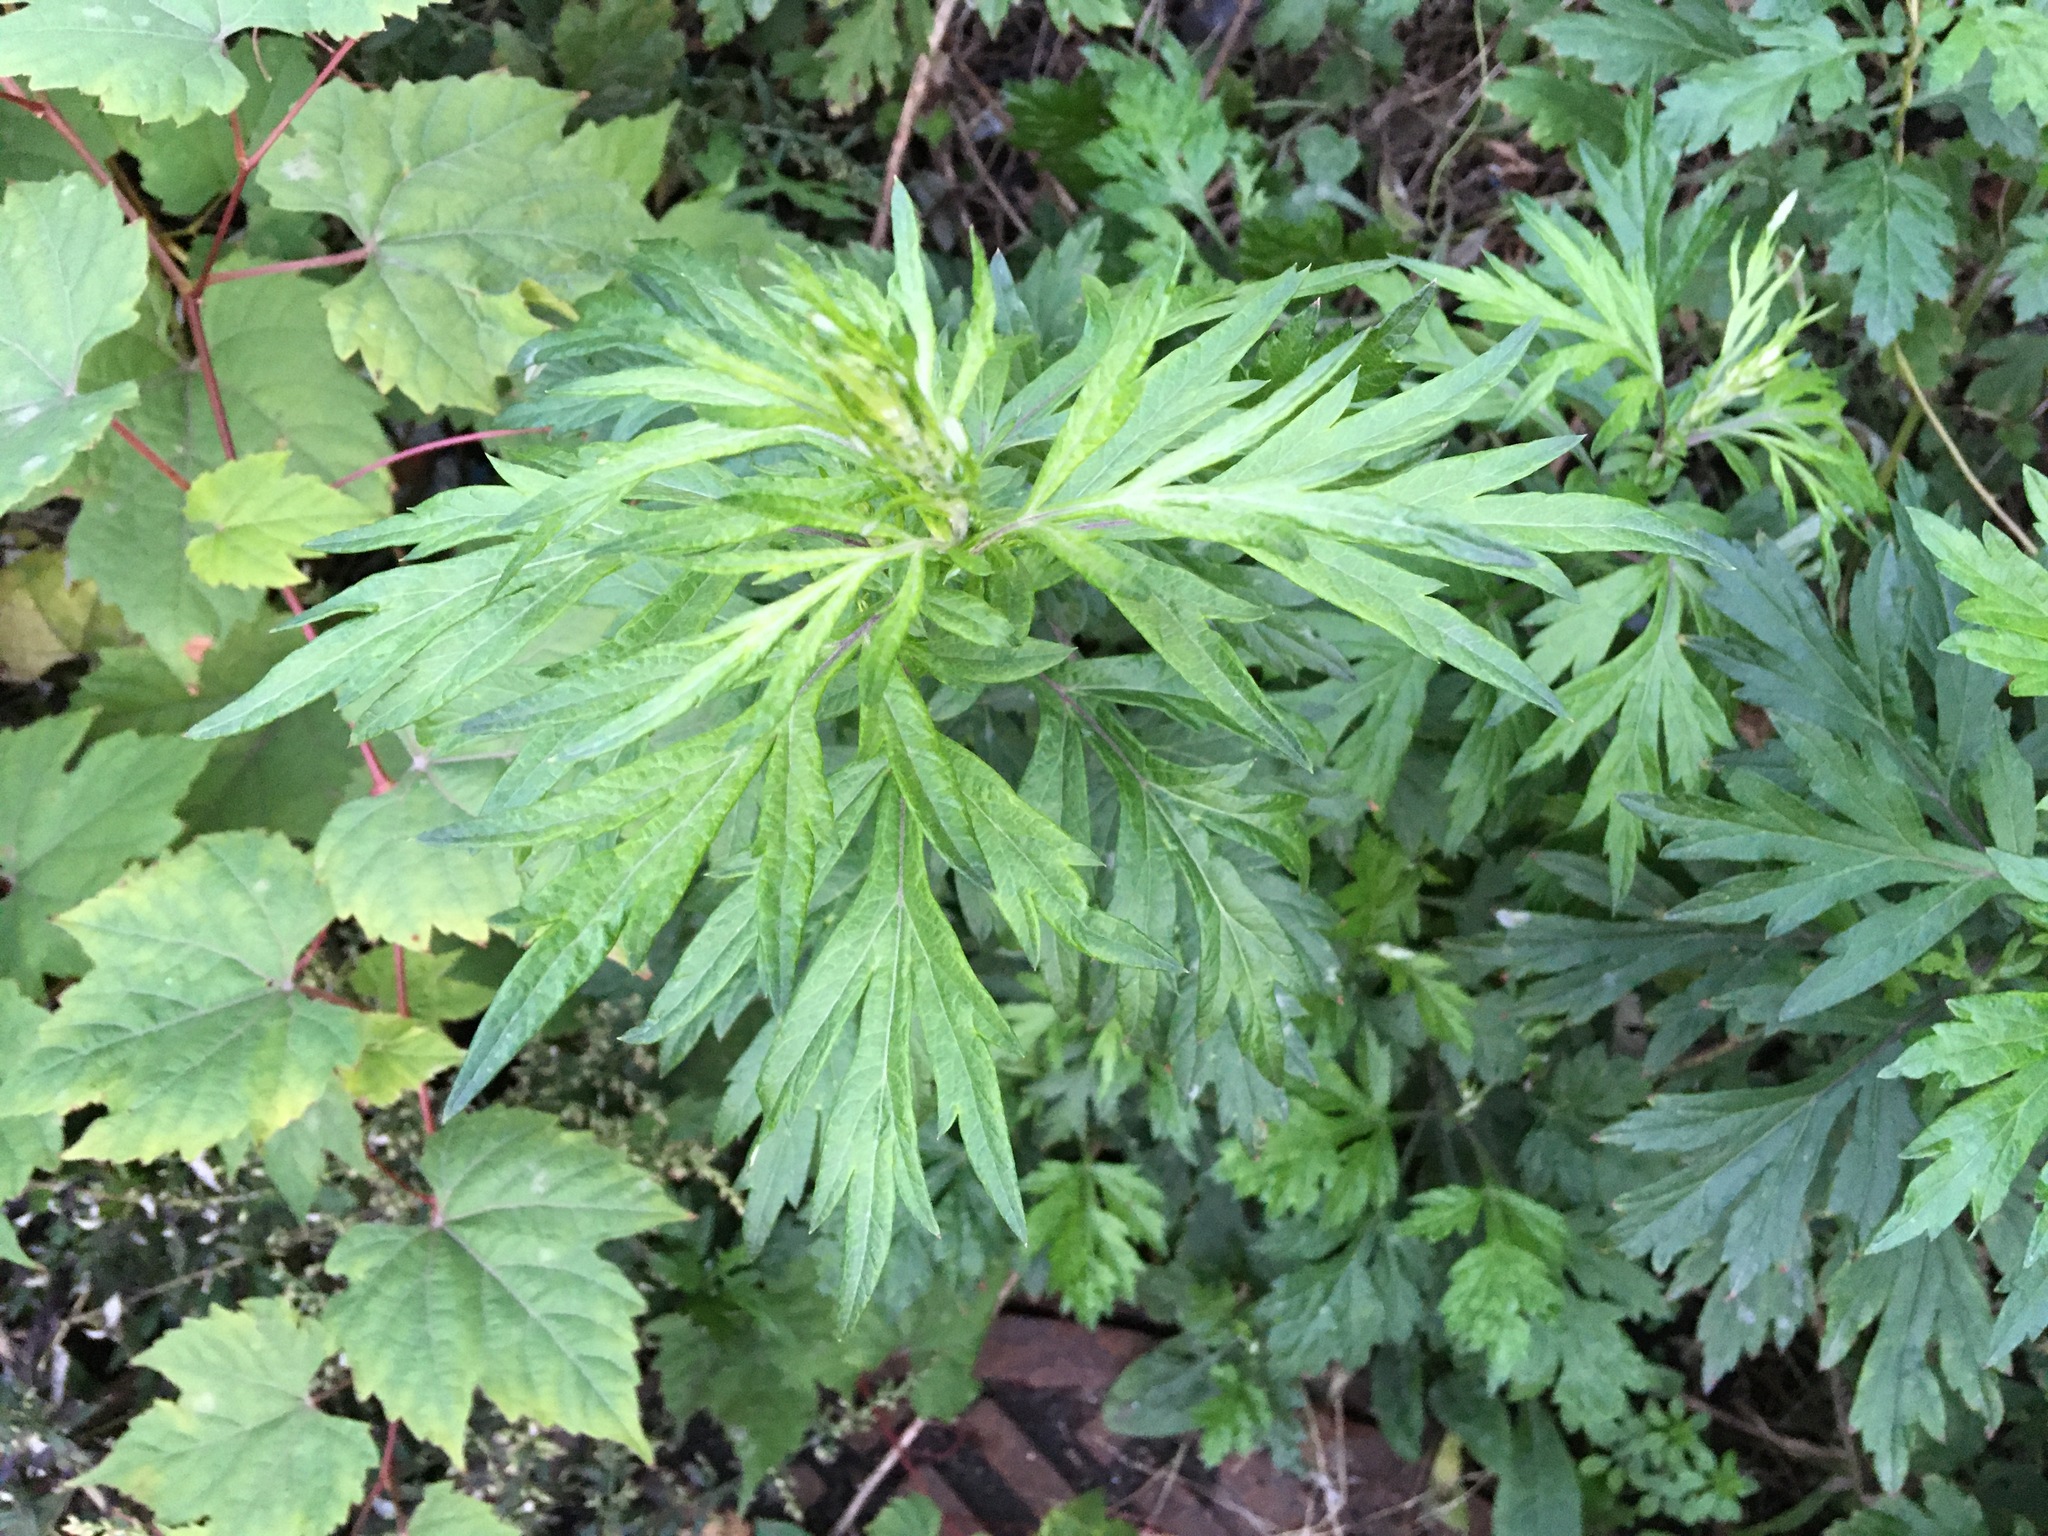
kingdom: Plantae
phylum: Tracheophyta
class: Magnoliopsida
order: Asterales
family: Asteraceae
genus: Artemisia
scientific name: Artemisia vulgaris
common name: Mugwort
